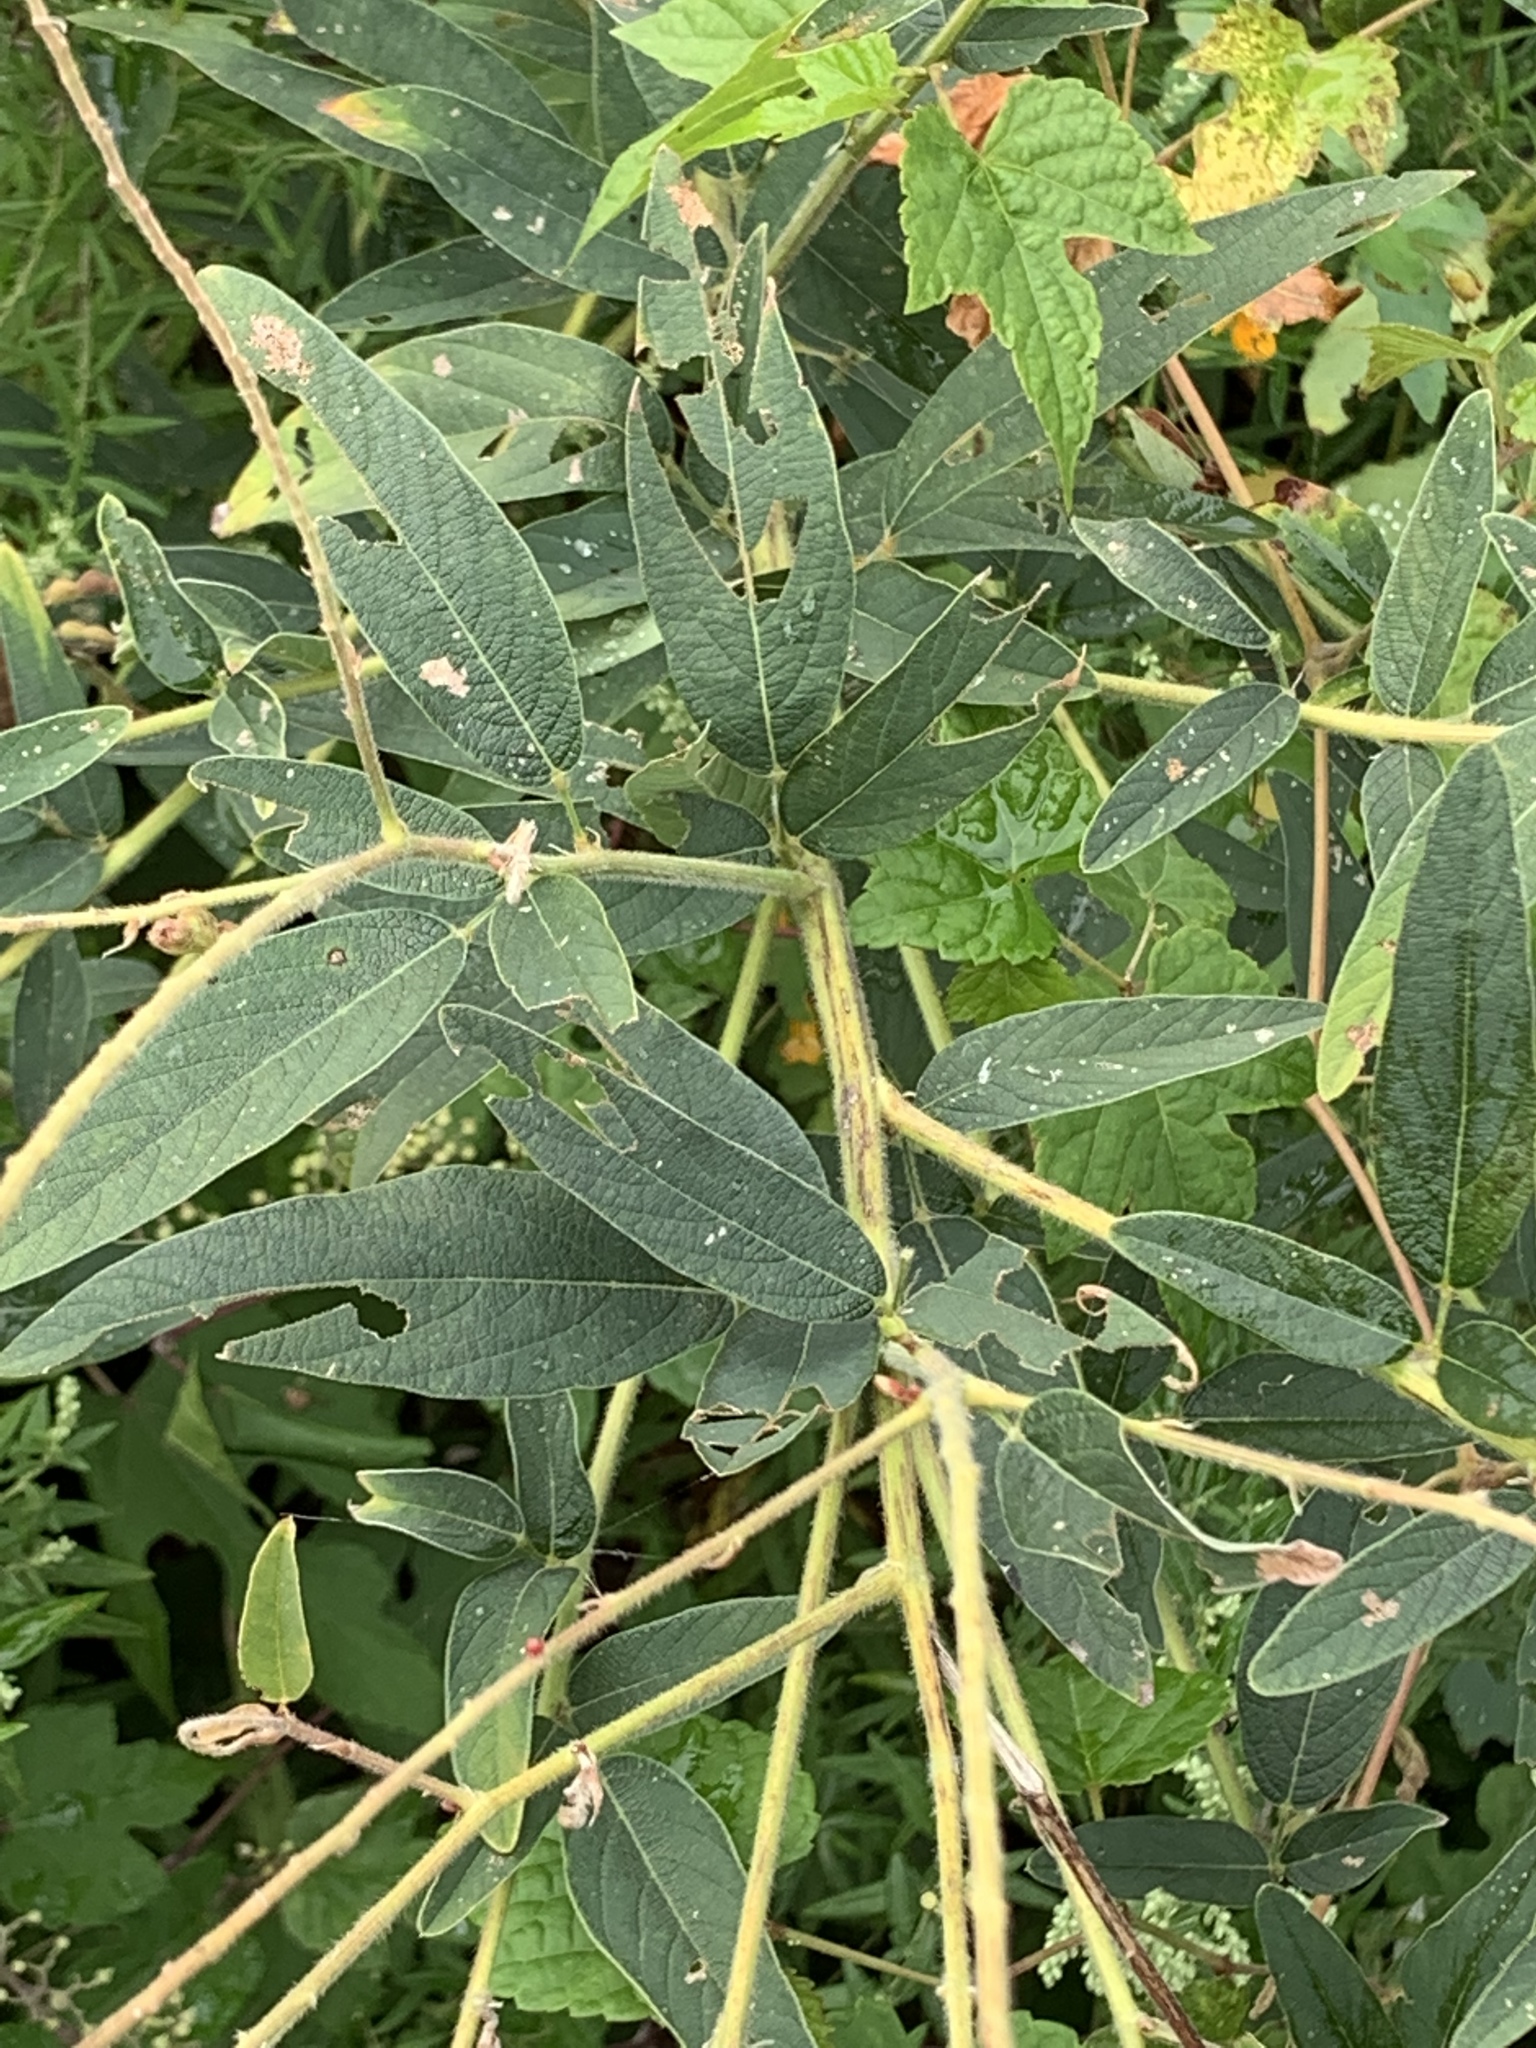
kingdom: Plantae
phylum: Tracheophyta
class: Magnoliopsida
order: Fabales
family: Fabaceae
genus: Desmodium
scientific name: Desmodium canadense
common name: Canada tick-trefoil
